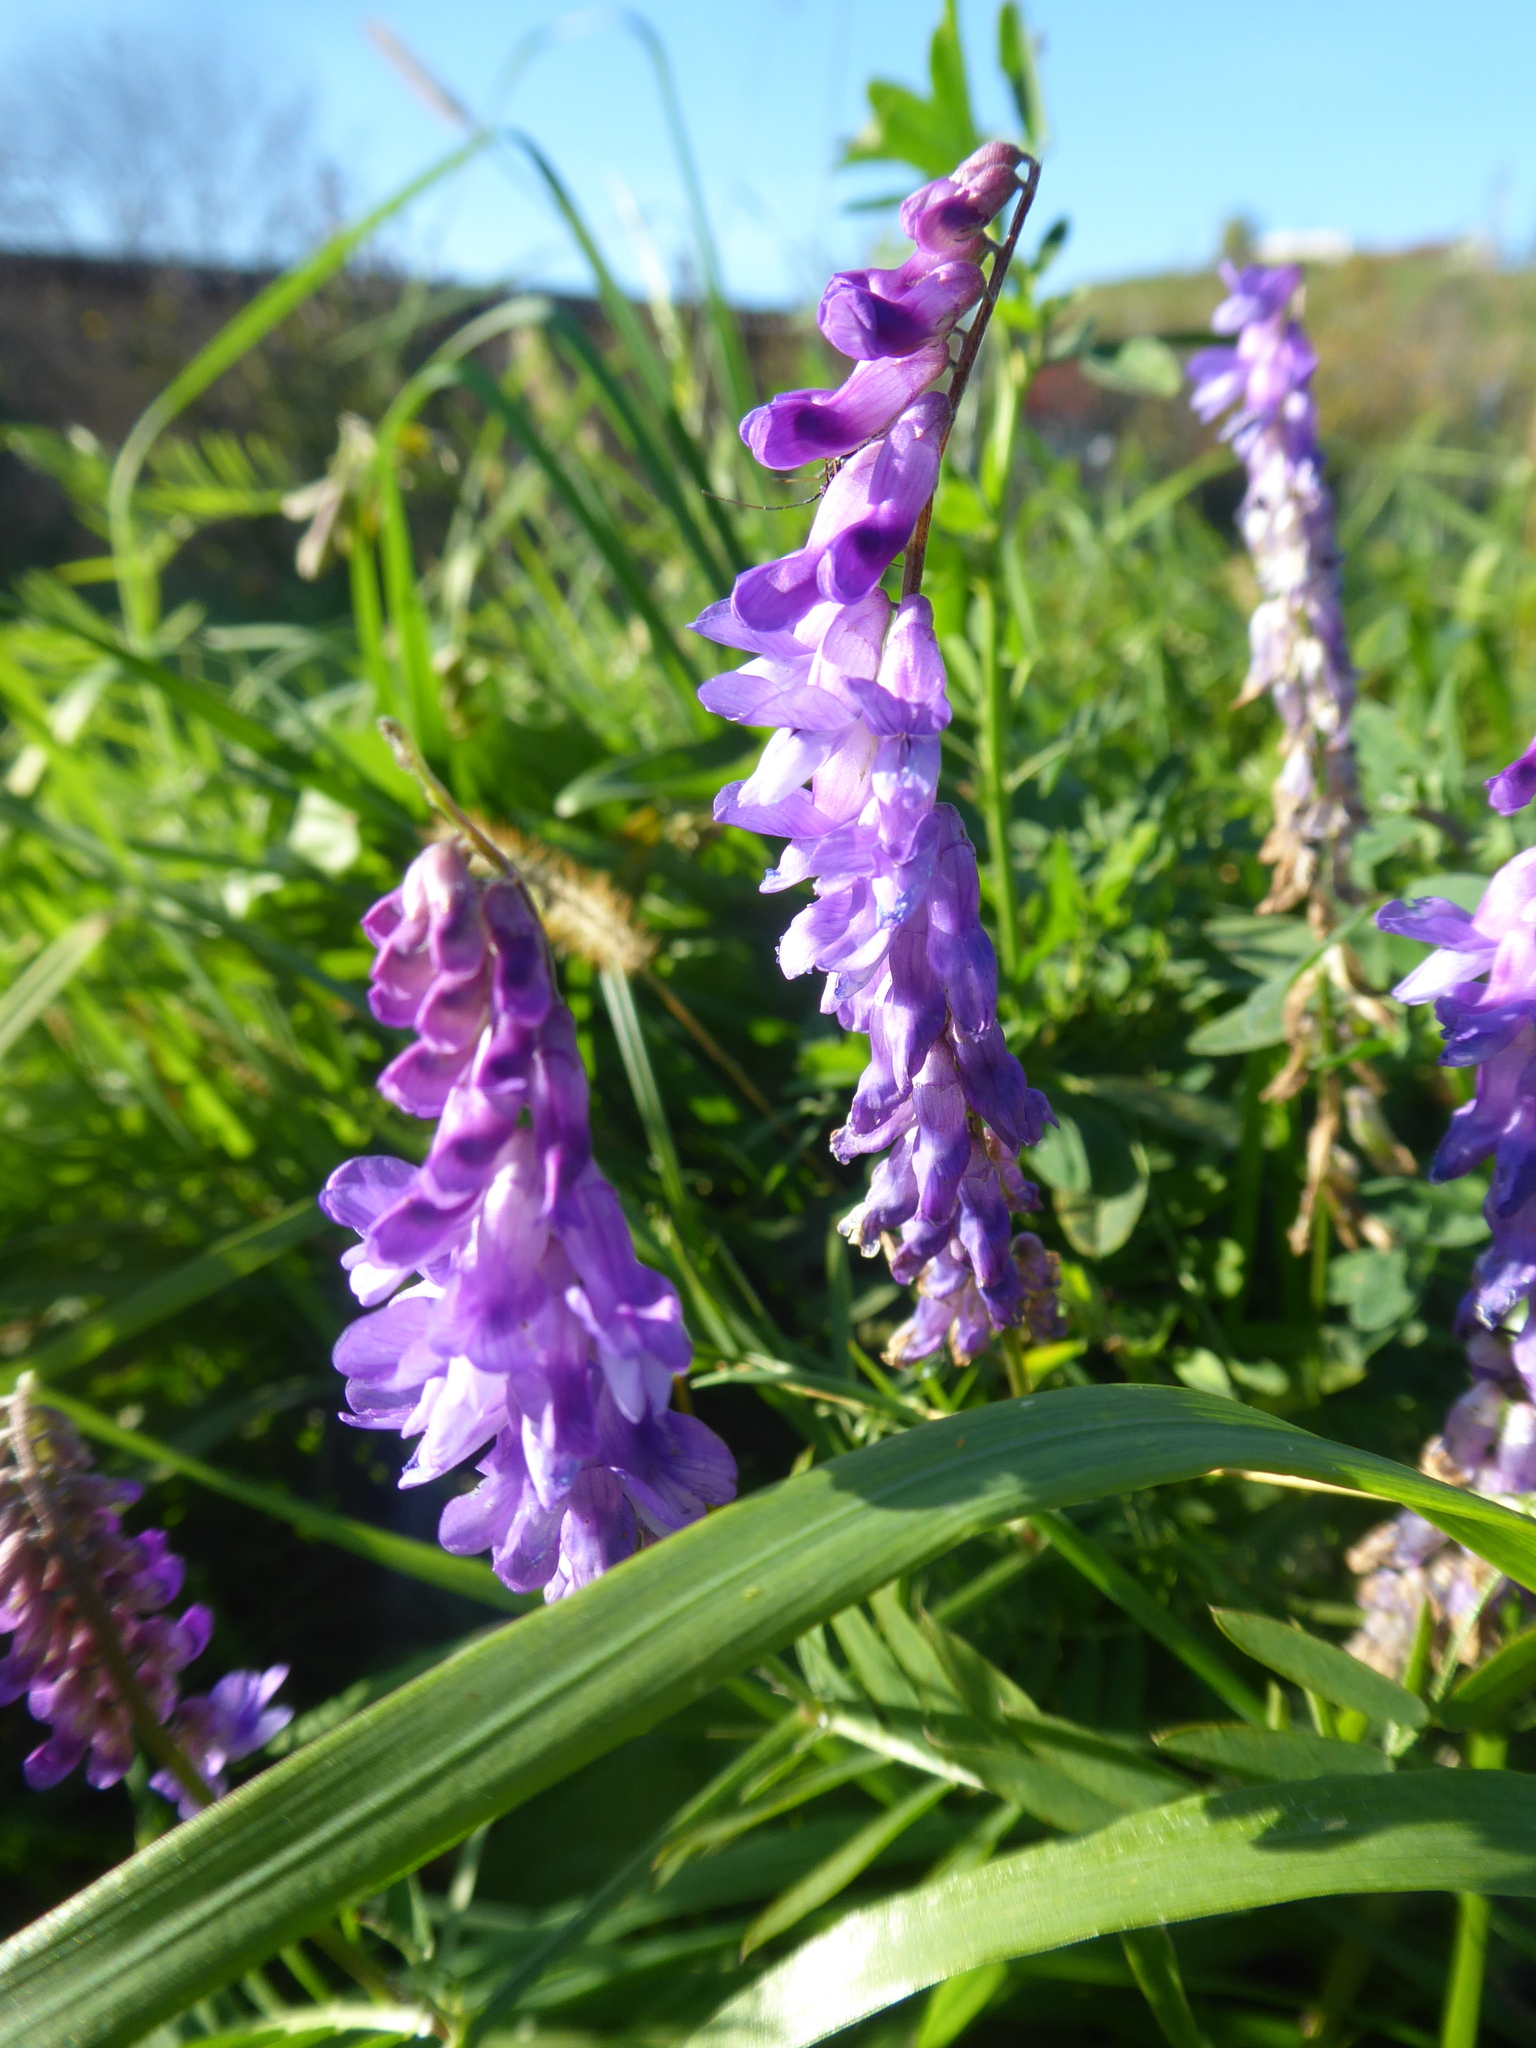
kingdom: Plantae
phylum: Tracheophyta
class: Magnoliopsida
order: Fabales
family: Fabaceae
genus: Vicia
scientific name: Vicia cracca
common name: Bird vetch
